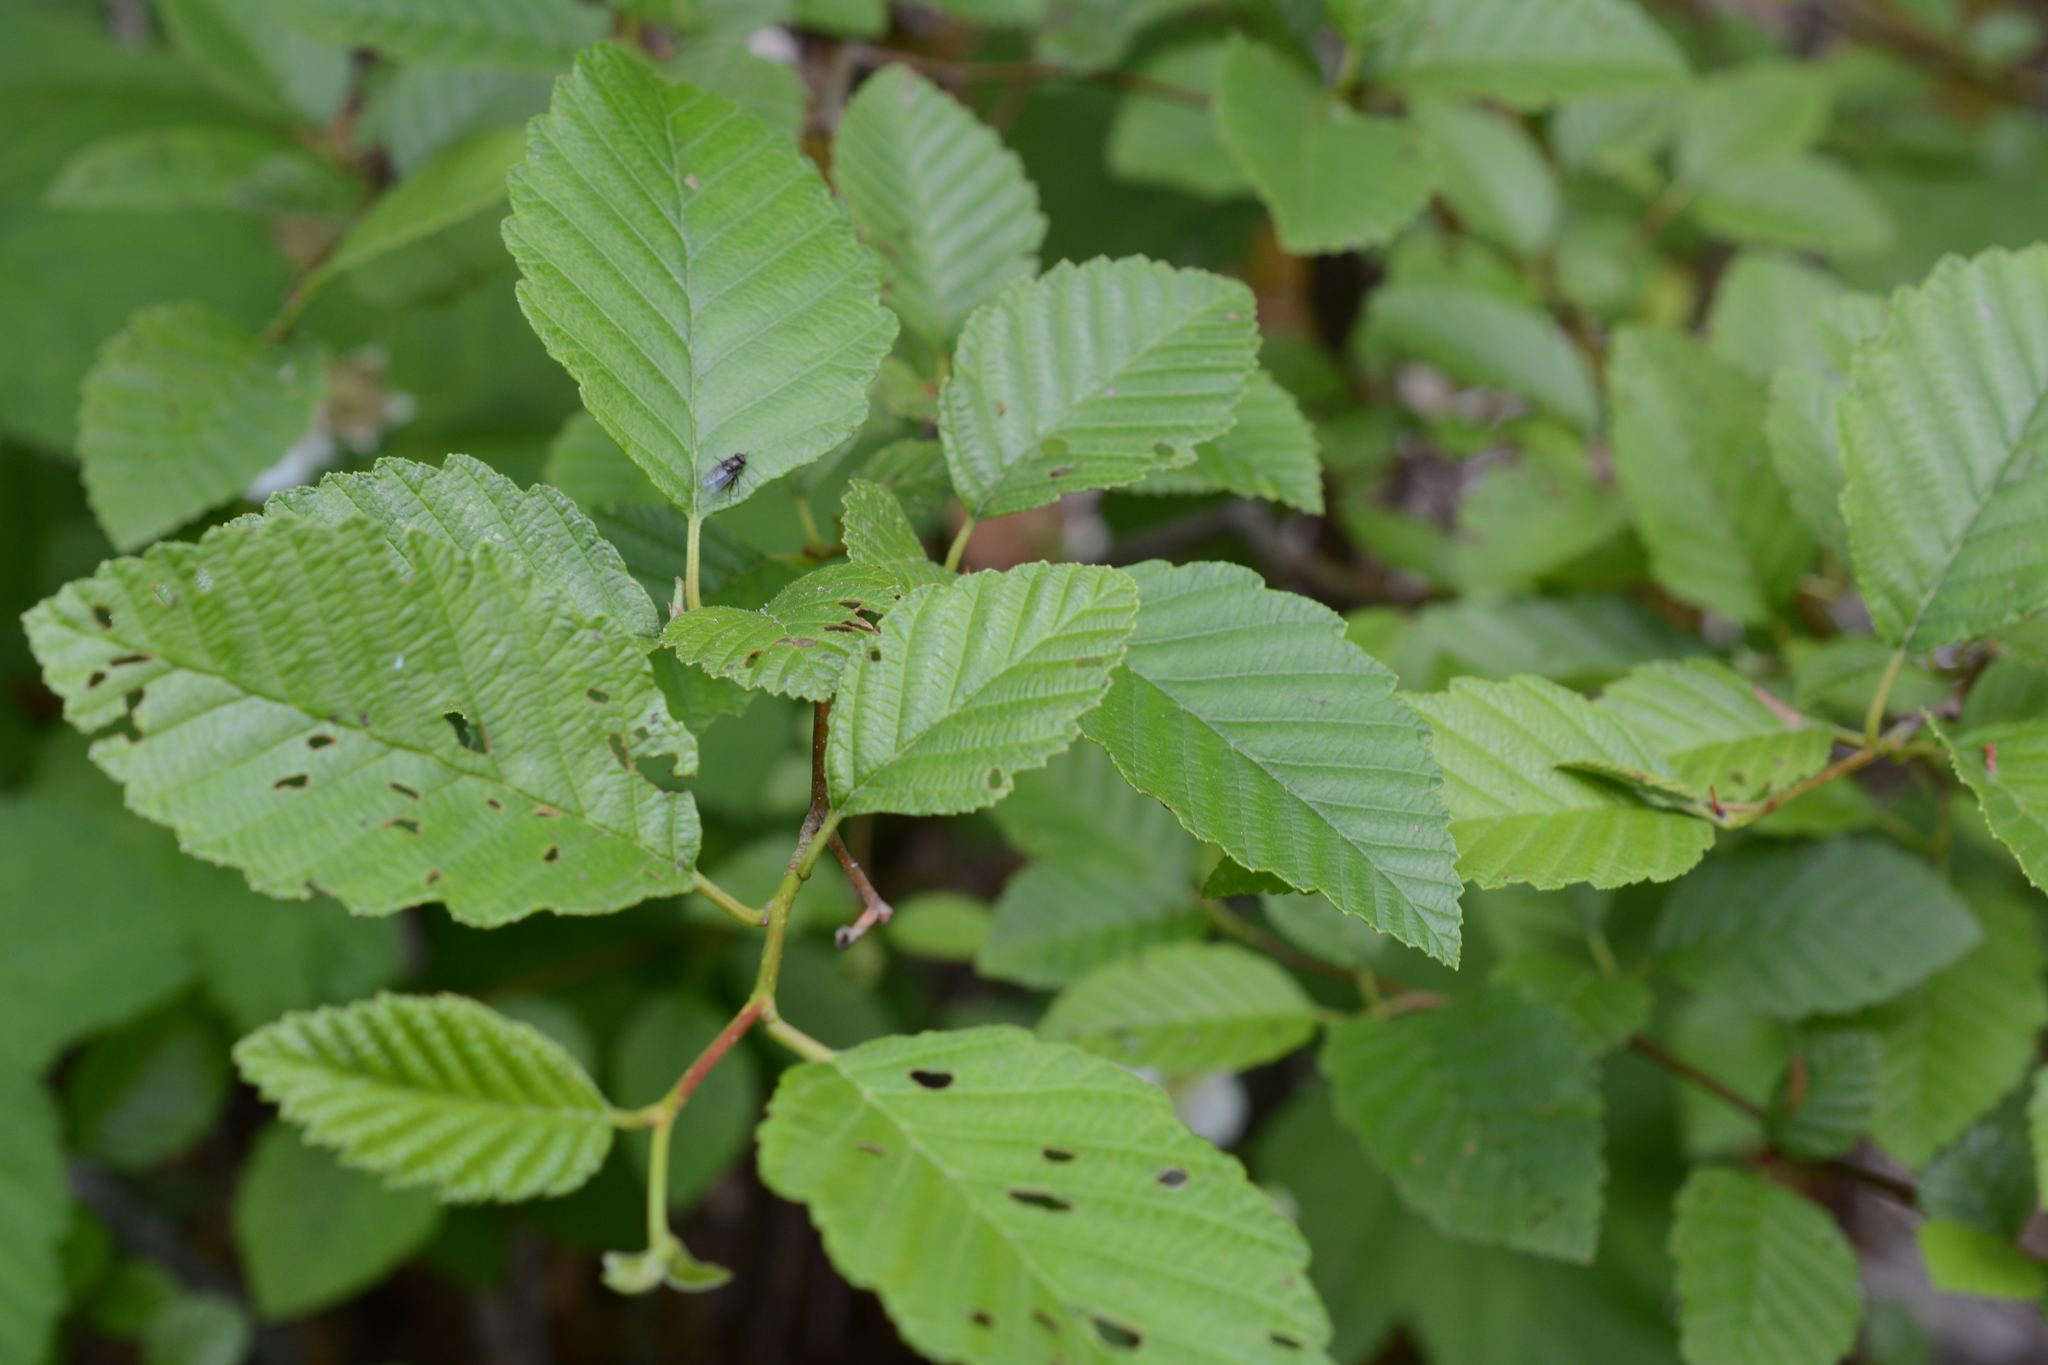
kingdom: Plantae
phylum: Tracheophyta
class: Magnoliopsida
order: Fagales
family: Betulaceae
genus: Alnus
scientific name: Alnus rubra
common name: Red alder
